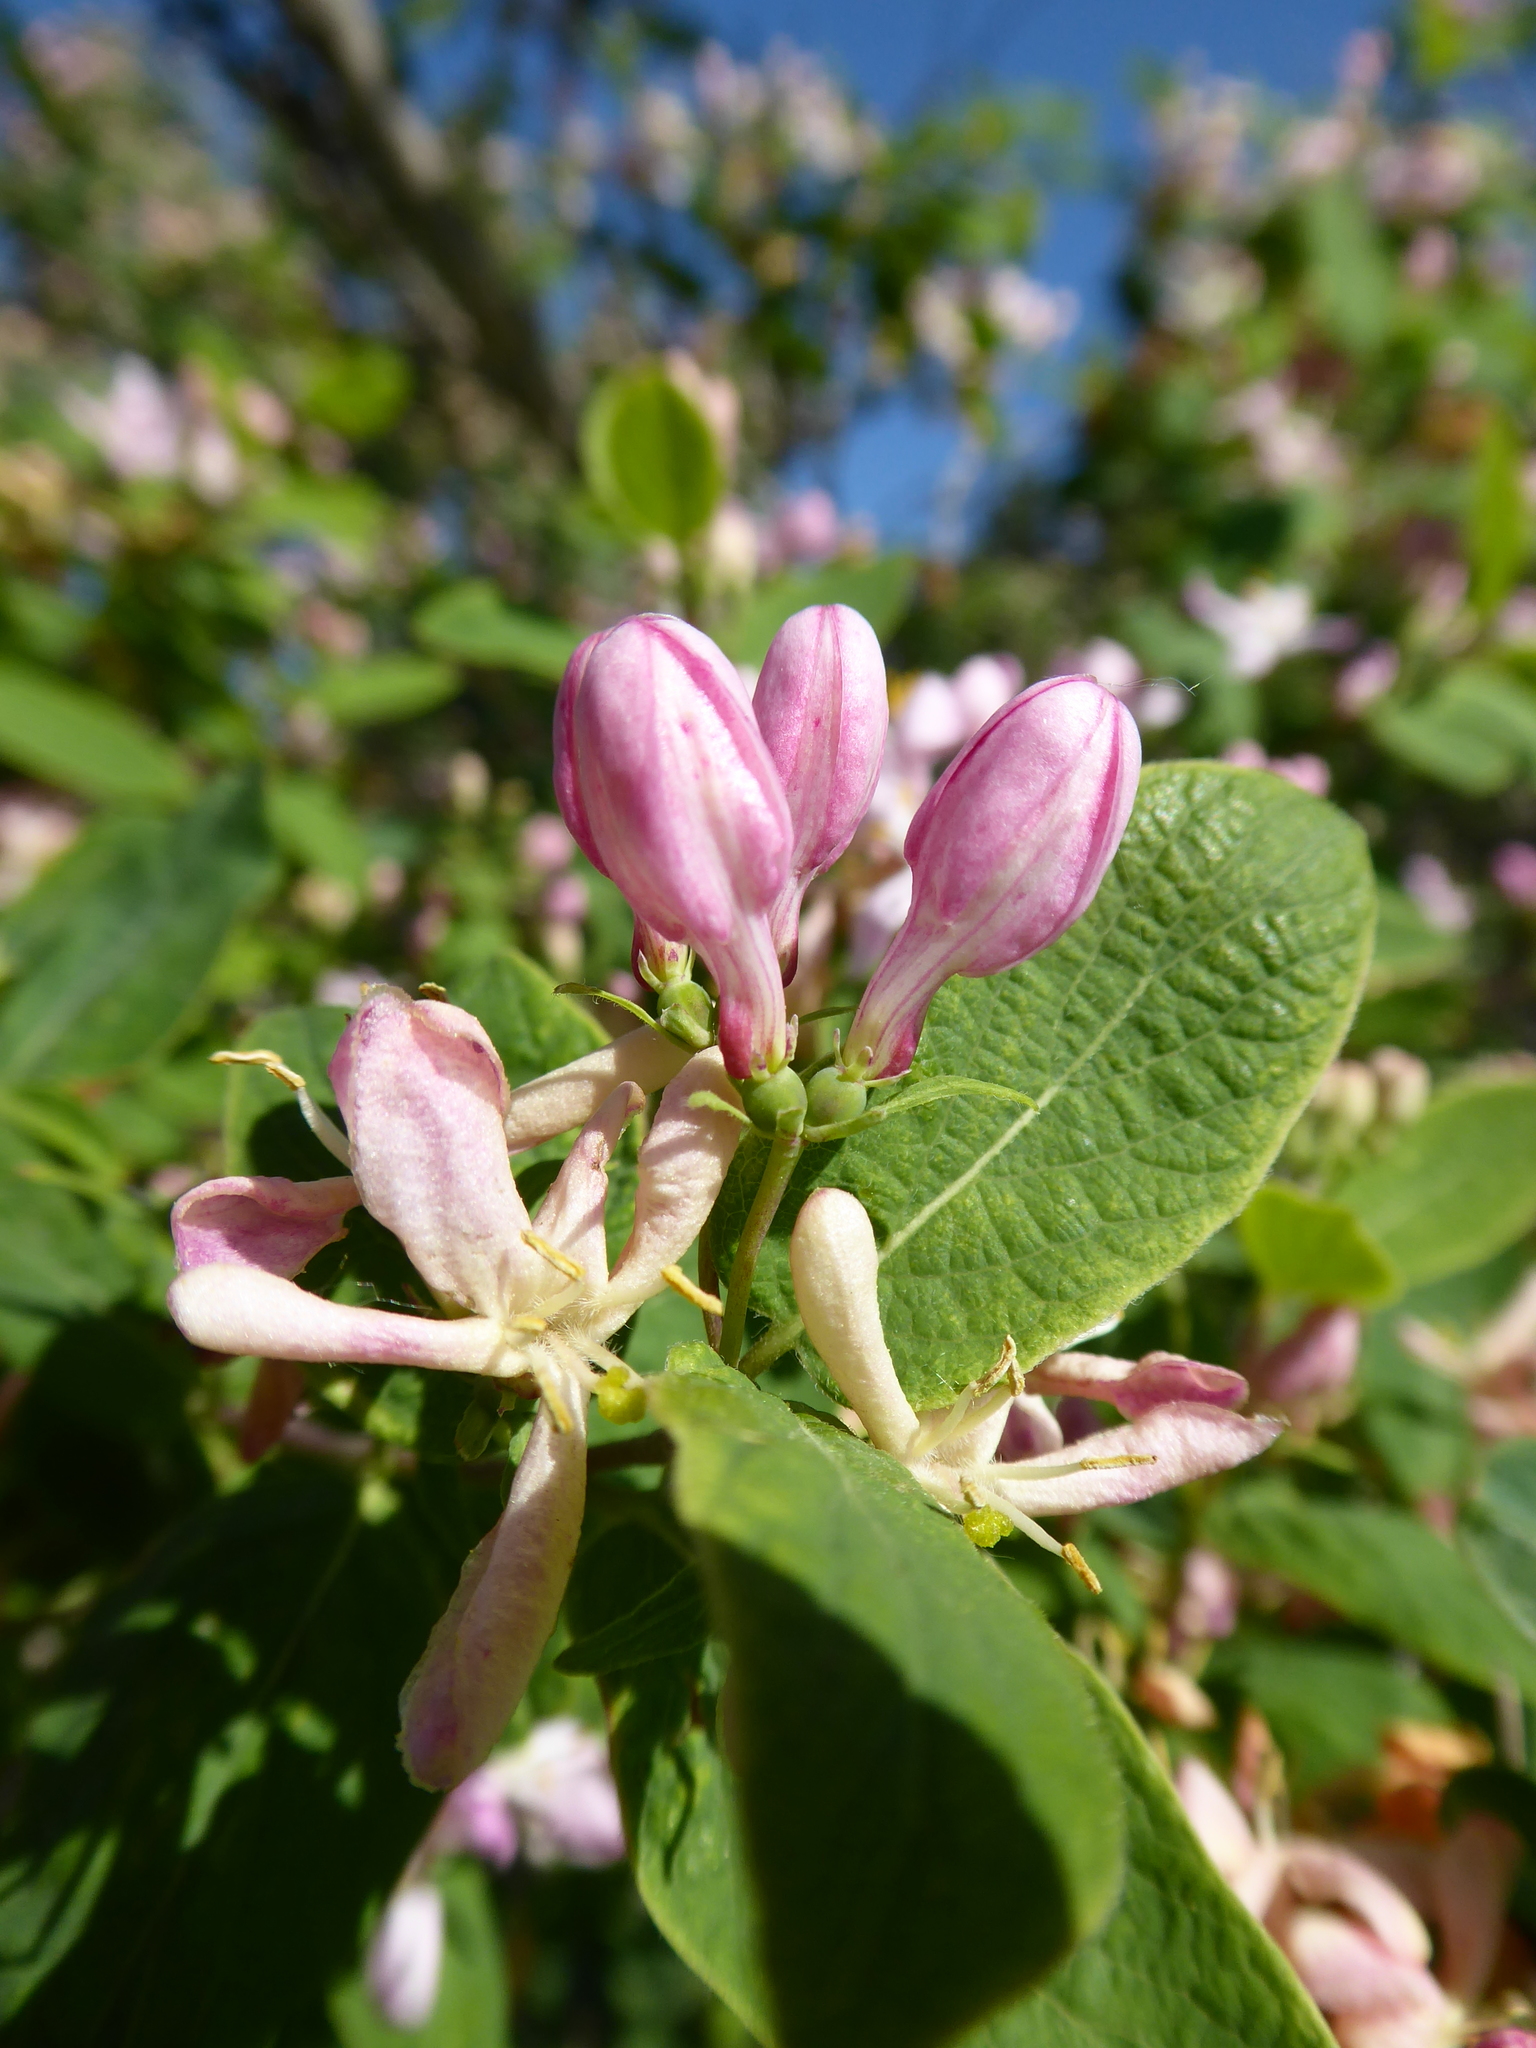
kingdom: Plantae
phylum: Tracheophyta
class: Magnoliopsida
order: Dipsacales
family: Caprifoliaceae
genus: Lonicera
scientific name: Lonicera tatarica
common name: Tatarian honeysuckle
